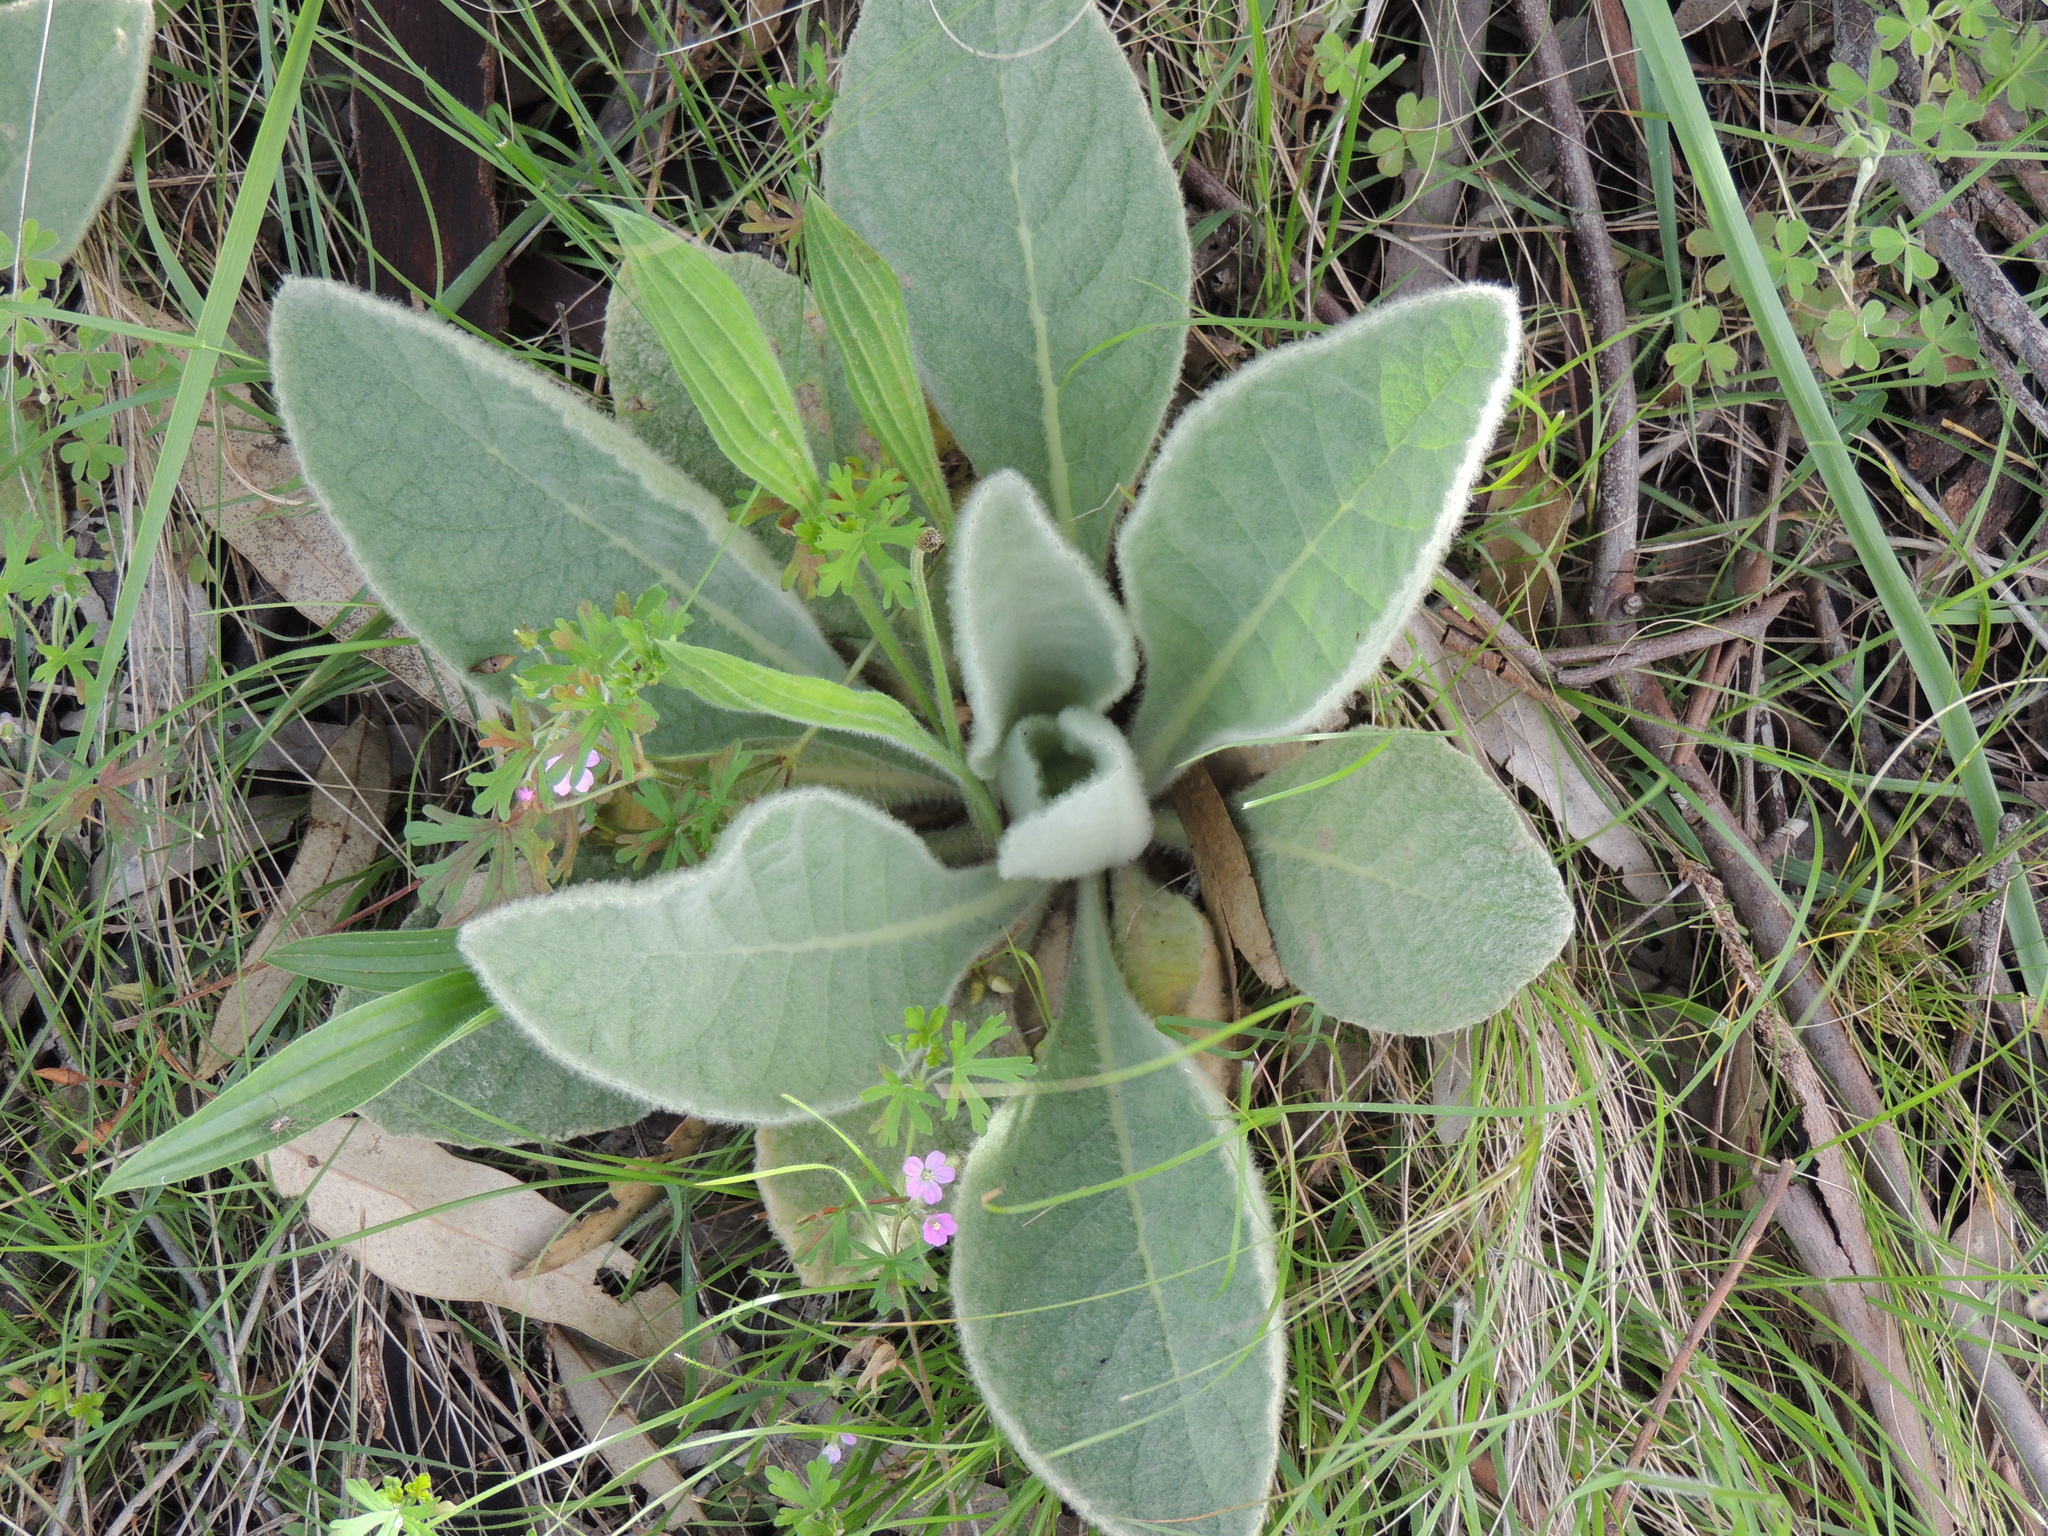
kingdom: Plantae
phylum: Tracheophyta
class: Magnoliopsida
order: Lamiales
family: Scrophulariaceae
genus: Verbascum
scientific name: Verbascum thapsus
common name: Common mullein
